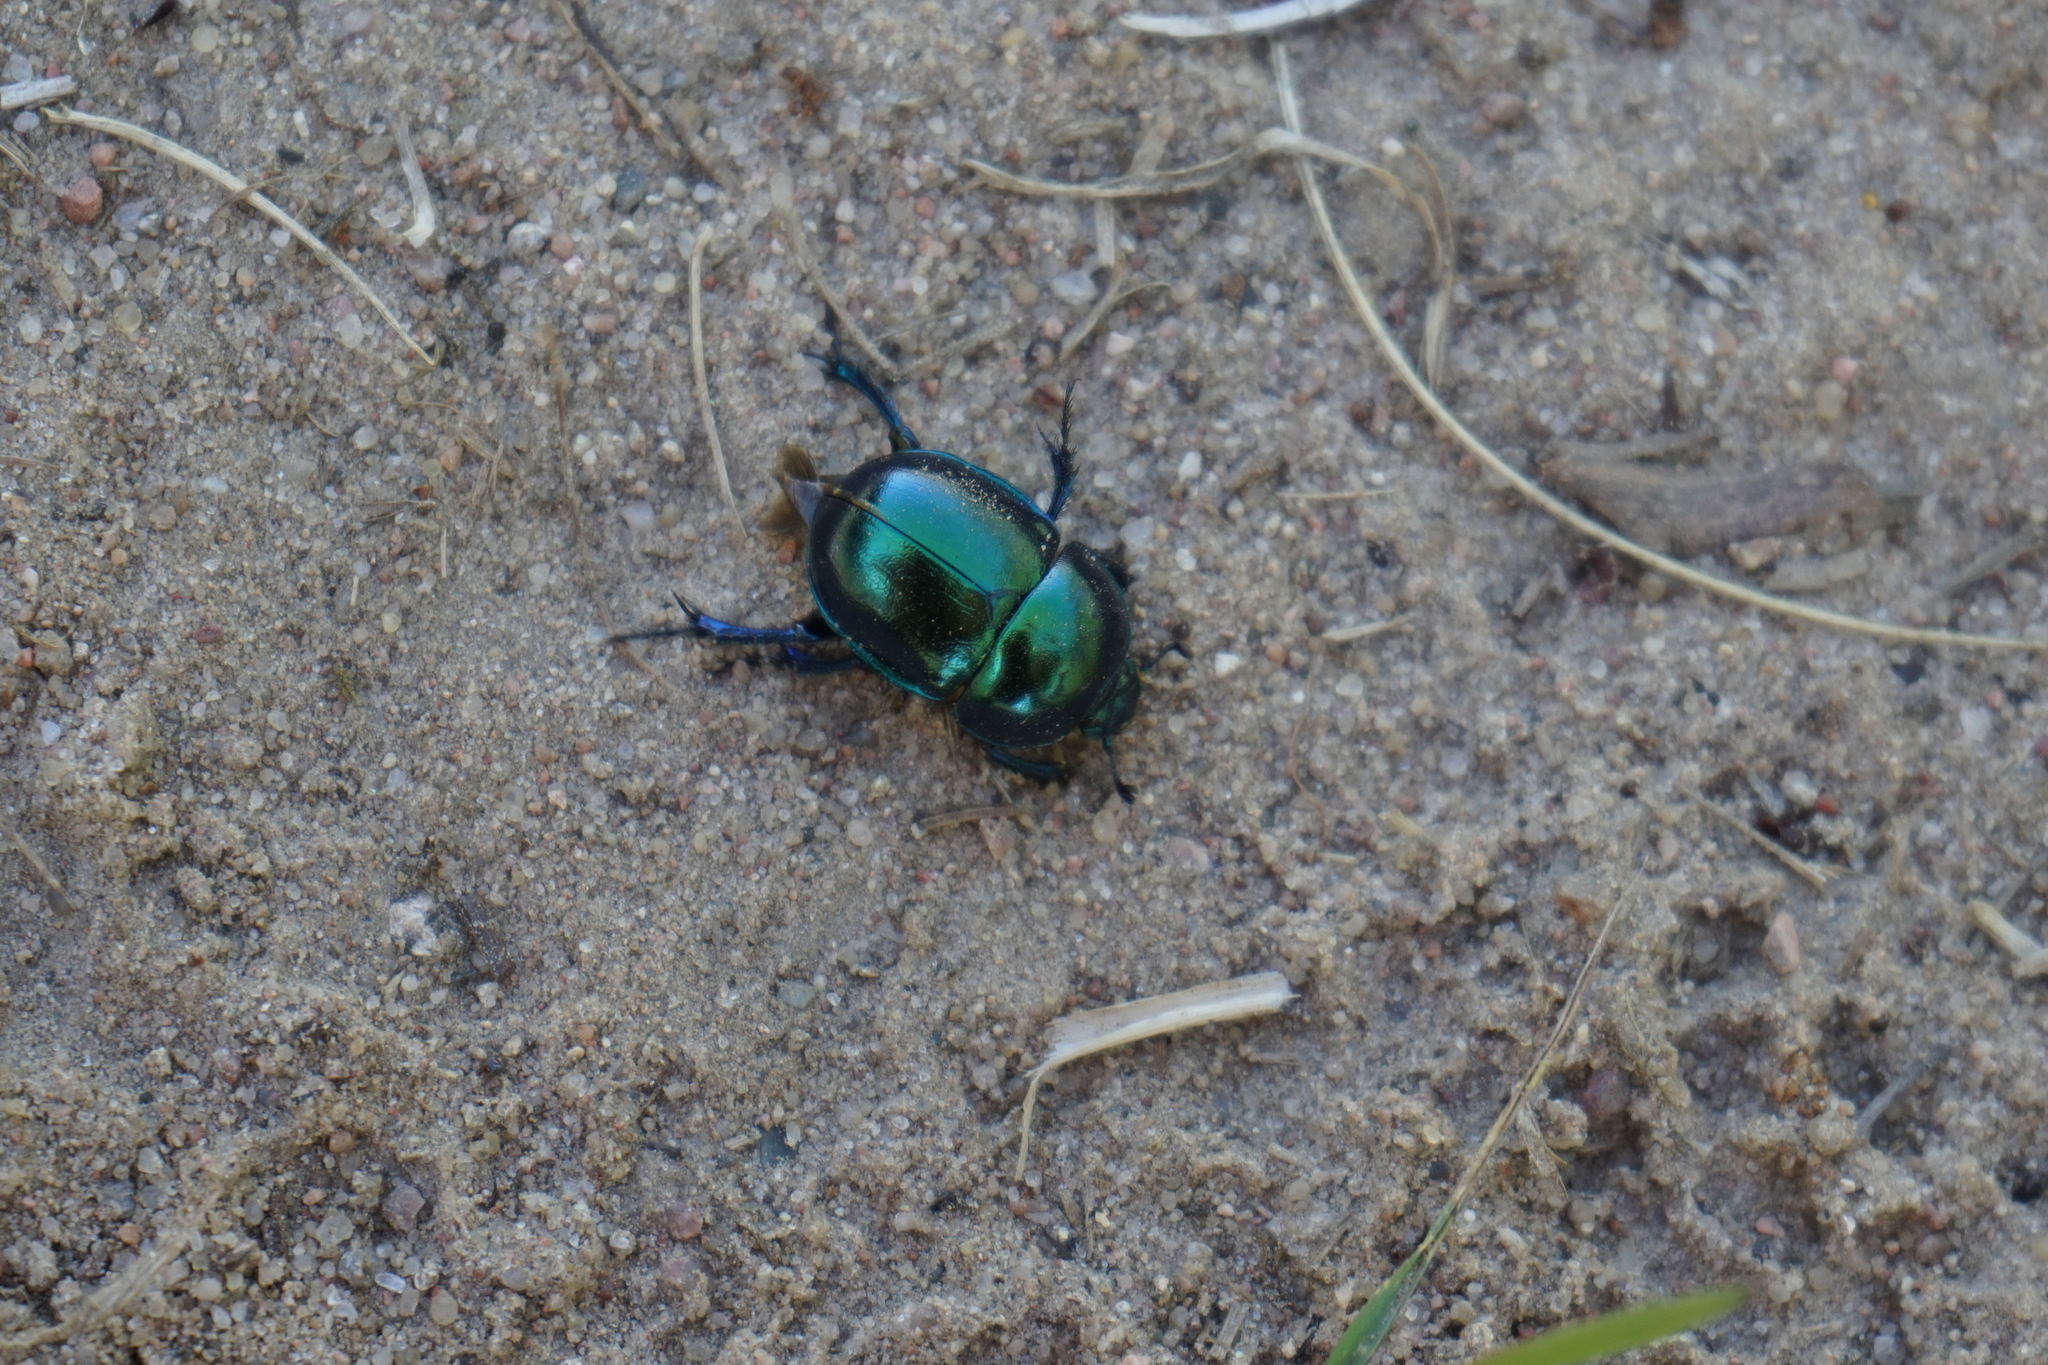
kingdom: Animalia
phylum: Arthropoda
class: Insecta
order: Coleoptera
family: Geotrupidae
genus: Trypocopris
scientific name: Trypocopris vernalis
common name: Spring dumbledor
